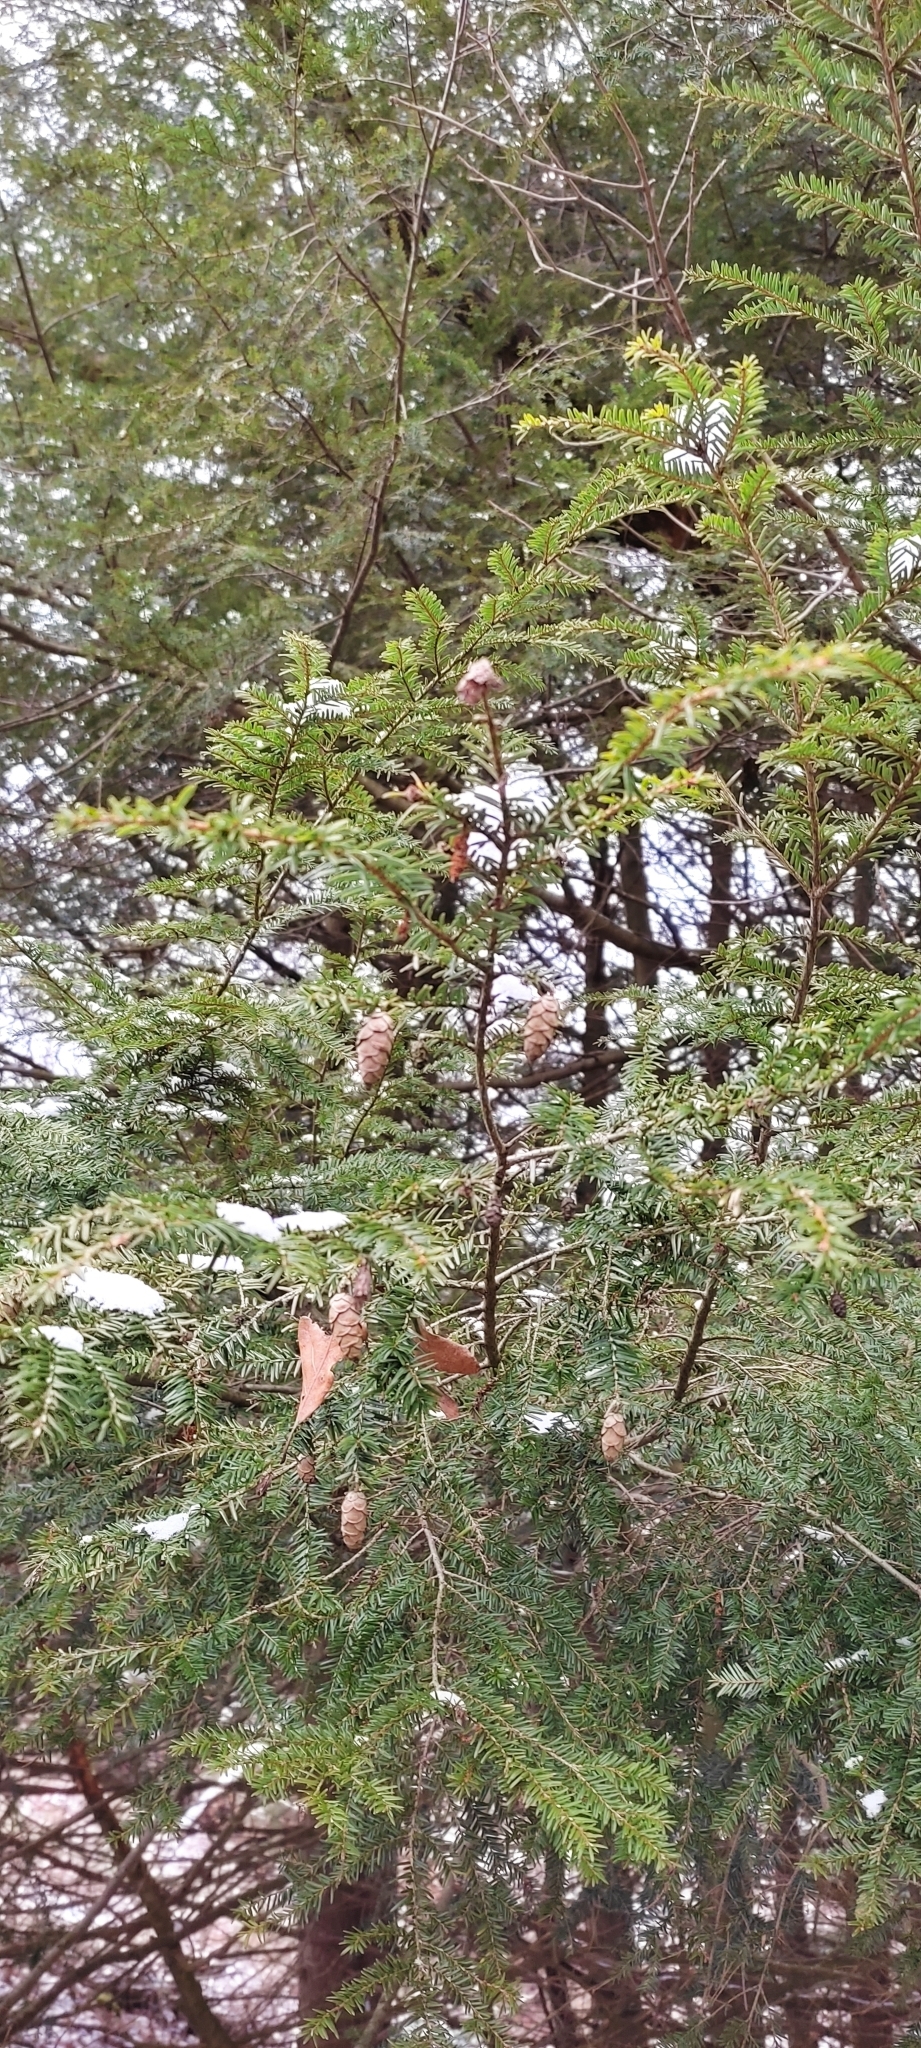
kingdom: Plantae
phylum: Tracheophyta
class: Pinopsida
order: Pinales
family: Pinaceae
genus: Tsuga
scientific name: Tsuga canadensis
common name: Eastern hemlock
